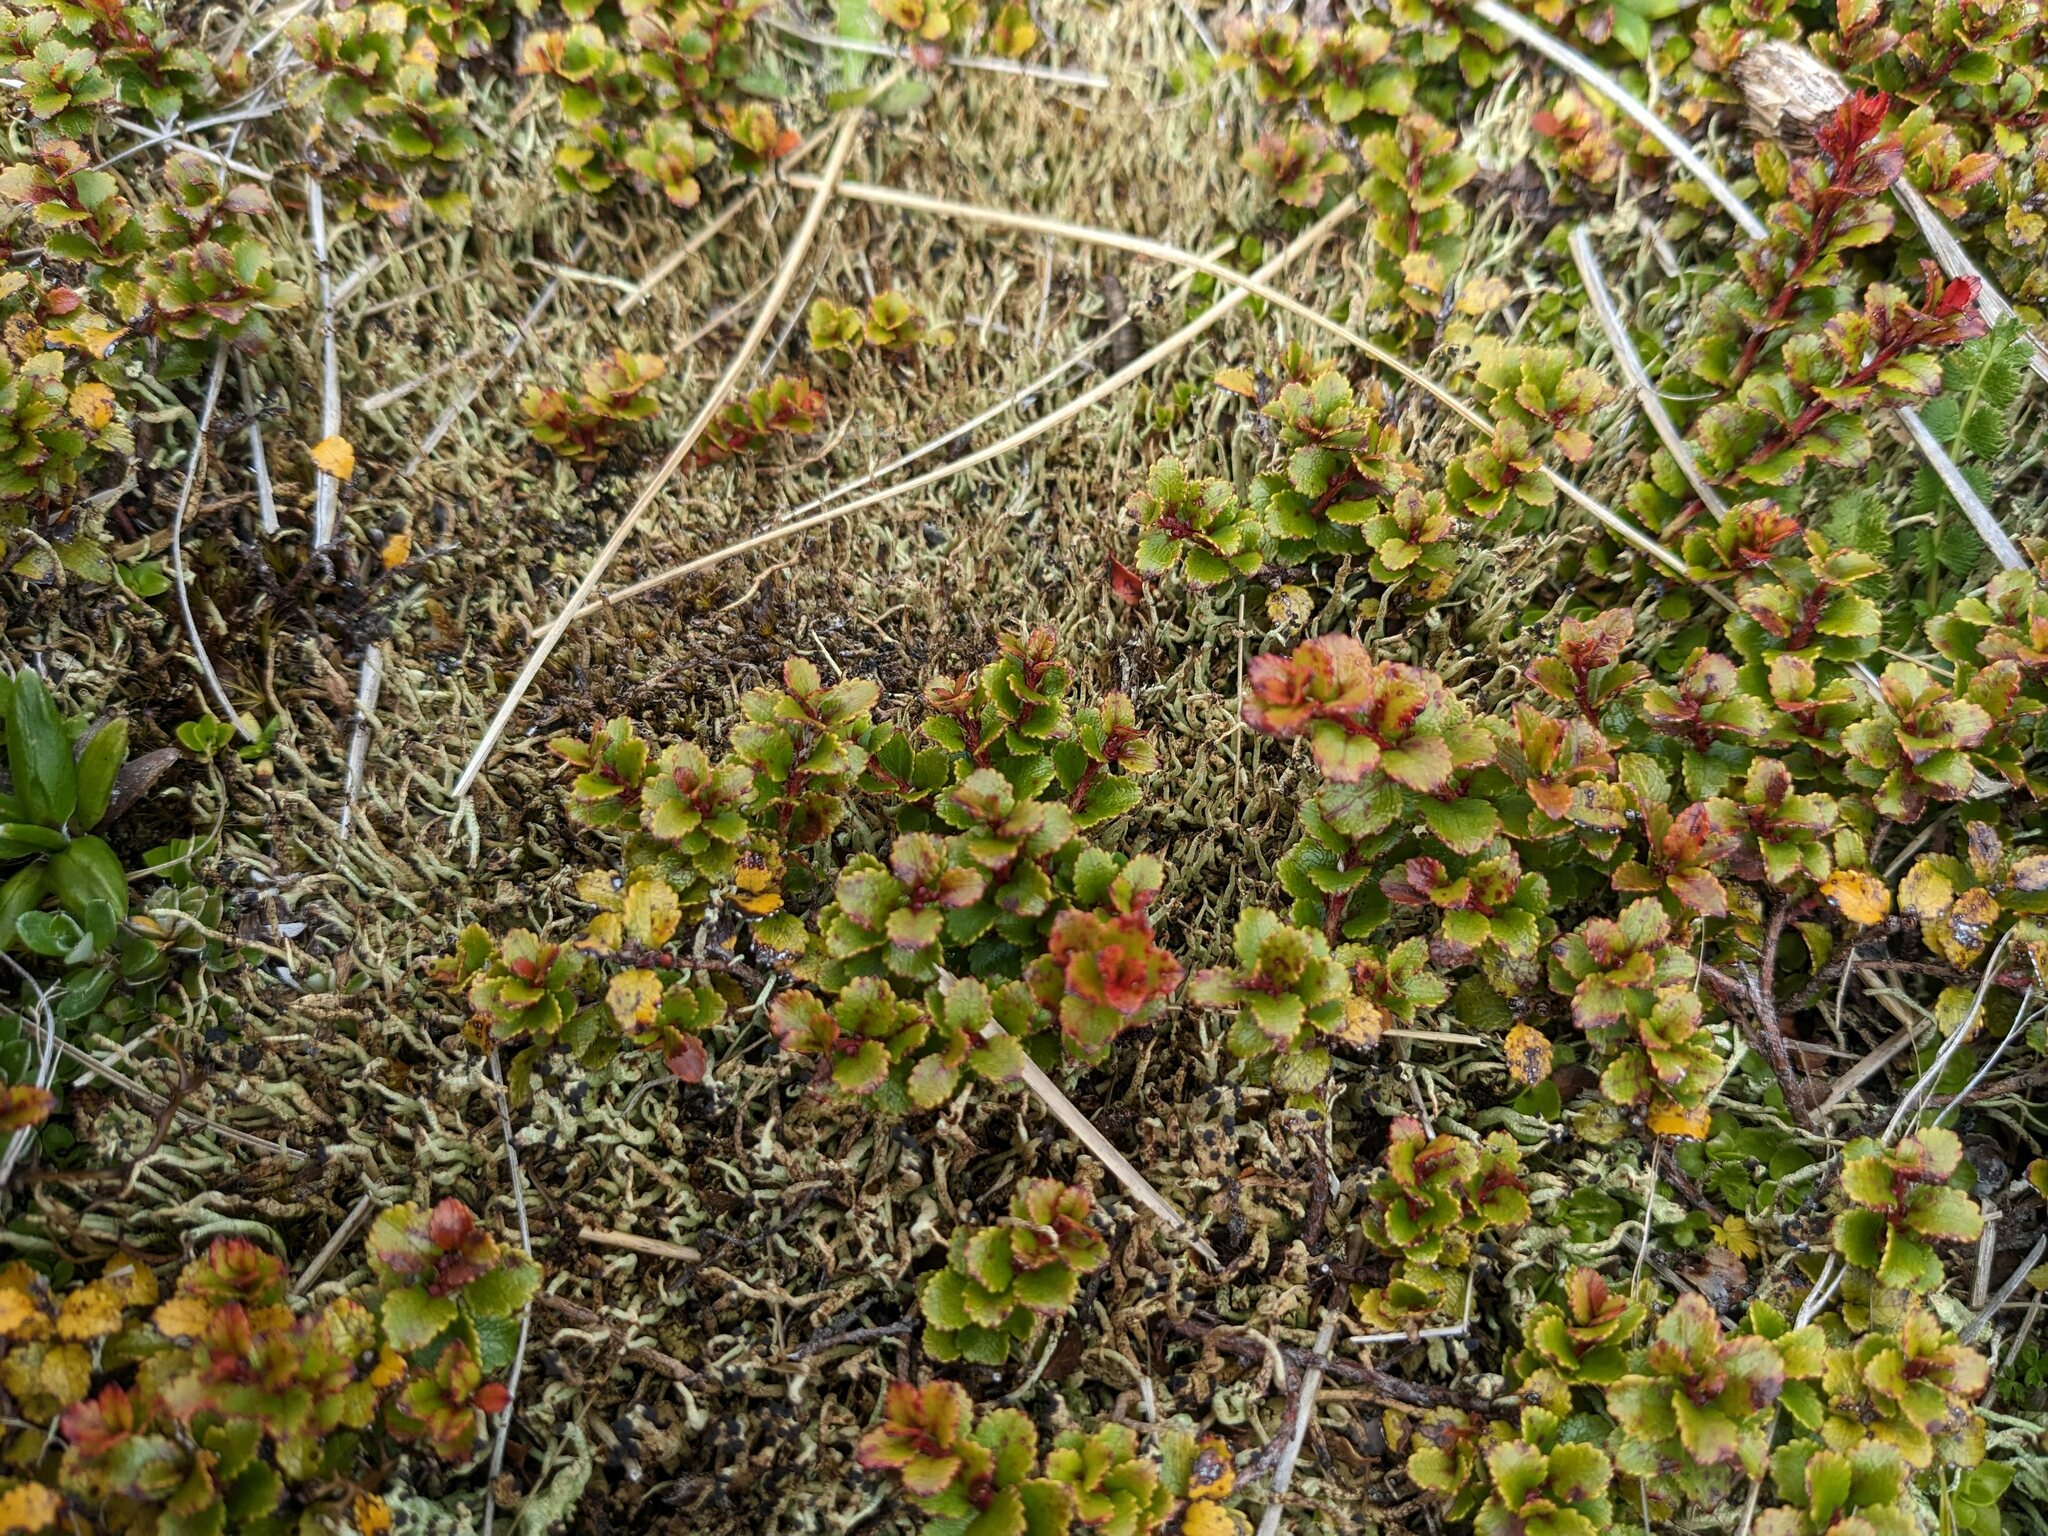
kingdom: Plantae
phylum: Tracheophyta
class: Magnoliopsida
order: Ericales
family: Ericaceae
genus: Gaultheria
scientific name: Gaultheria depressa
